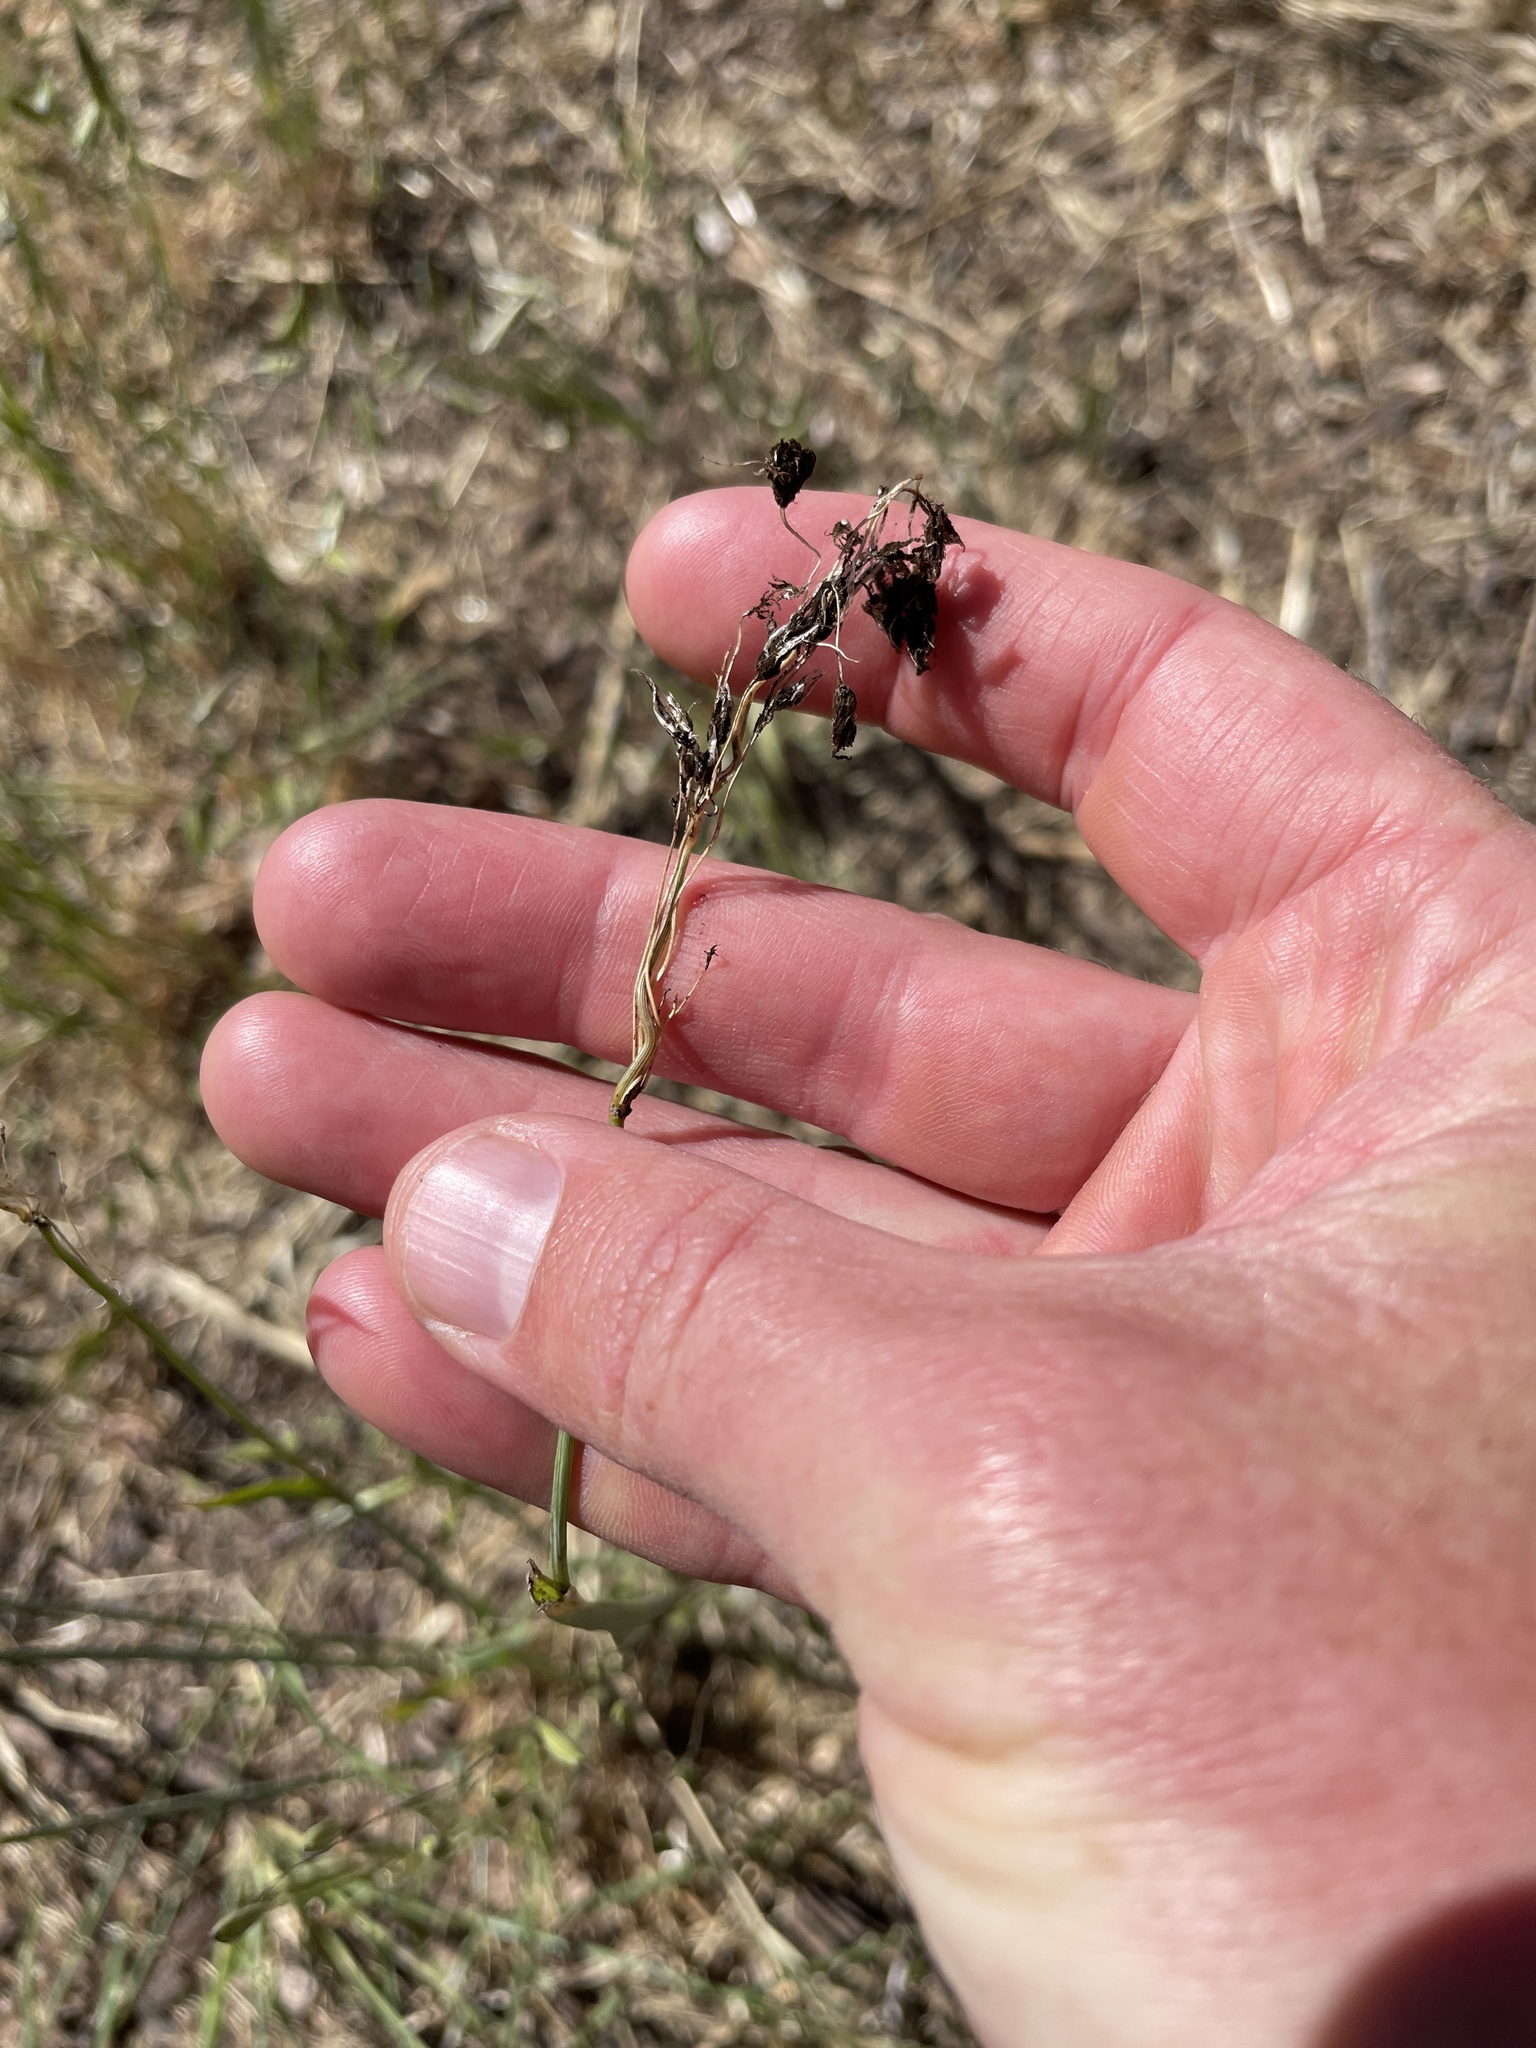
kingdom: Fungi
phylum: Basidiomycota
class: Ustilaginomycetes
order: Ustilaginales
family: Ustilaginaceae
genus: Ustilago
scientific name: Ustilago avenae
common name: Loose smut of oats & oat grass
